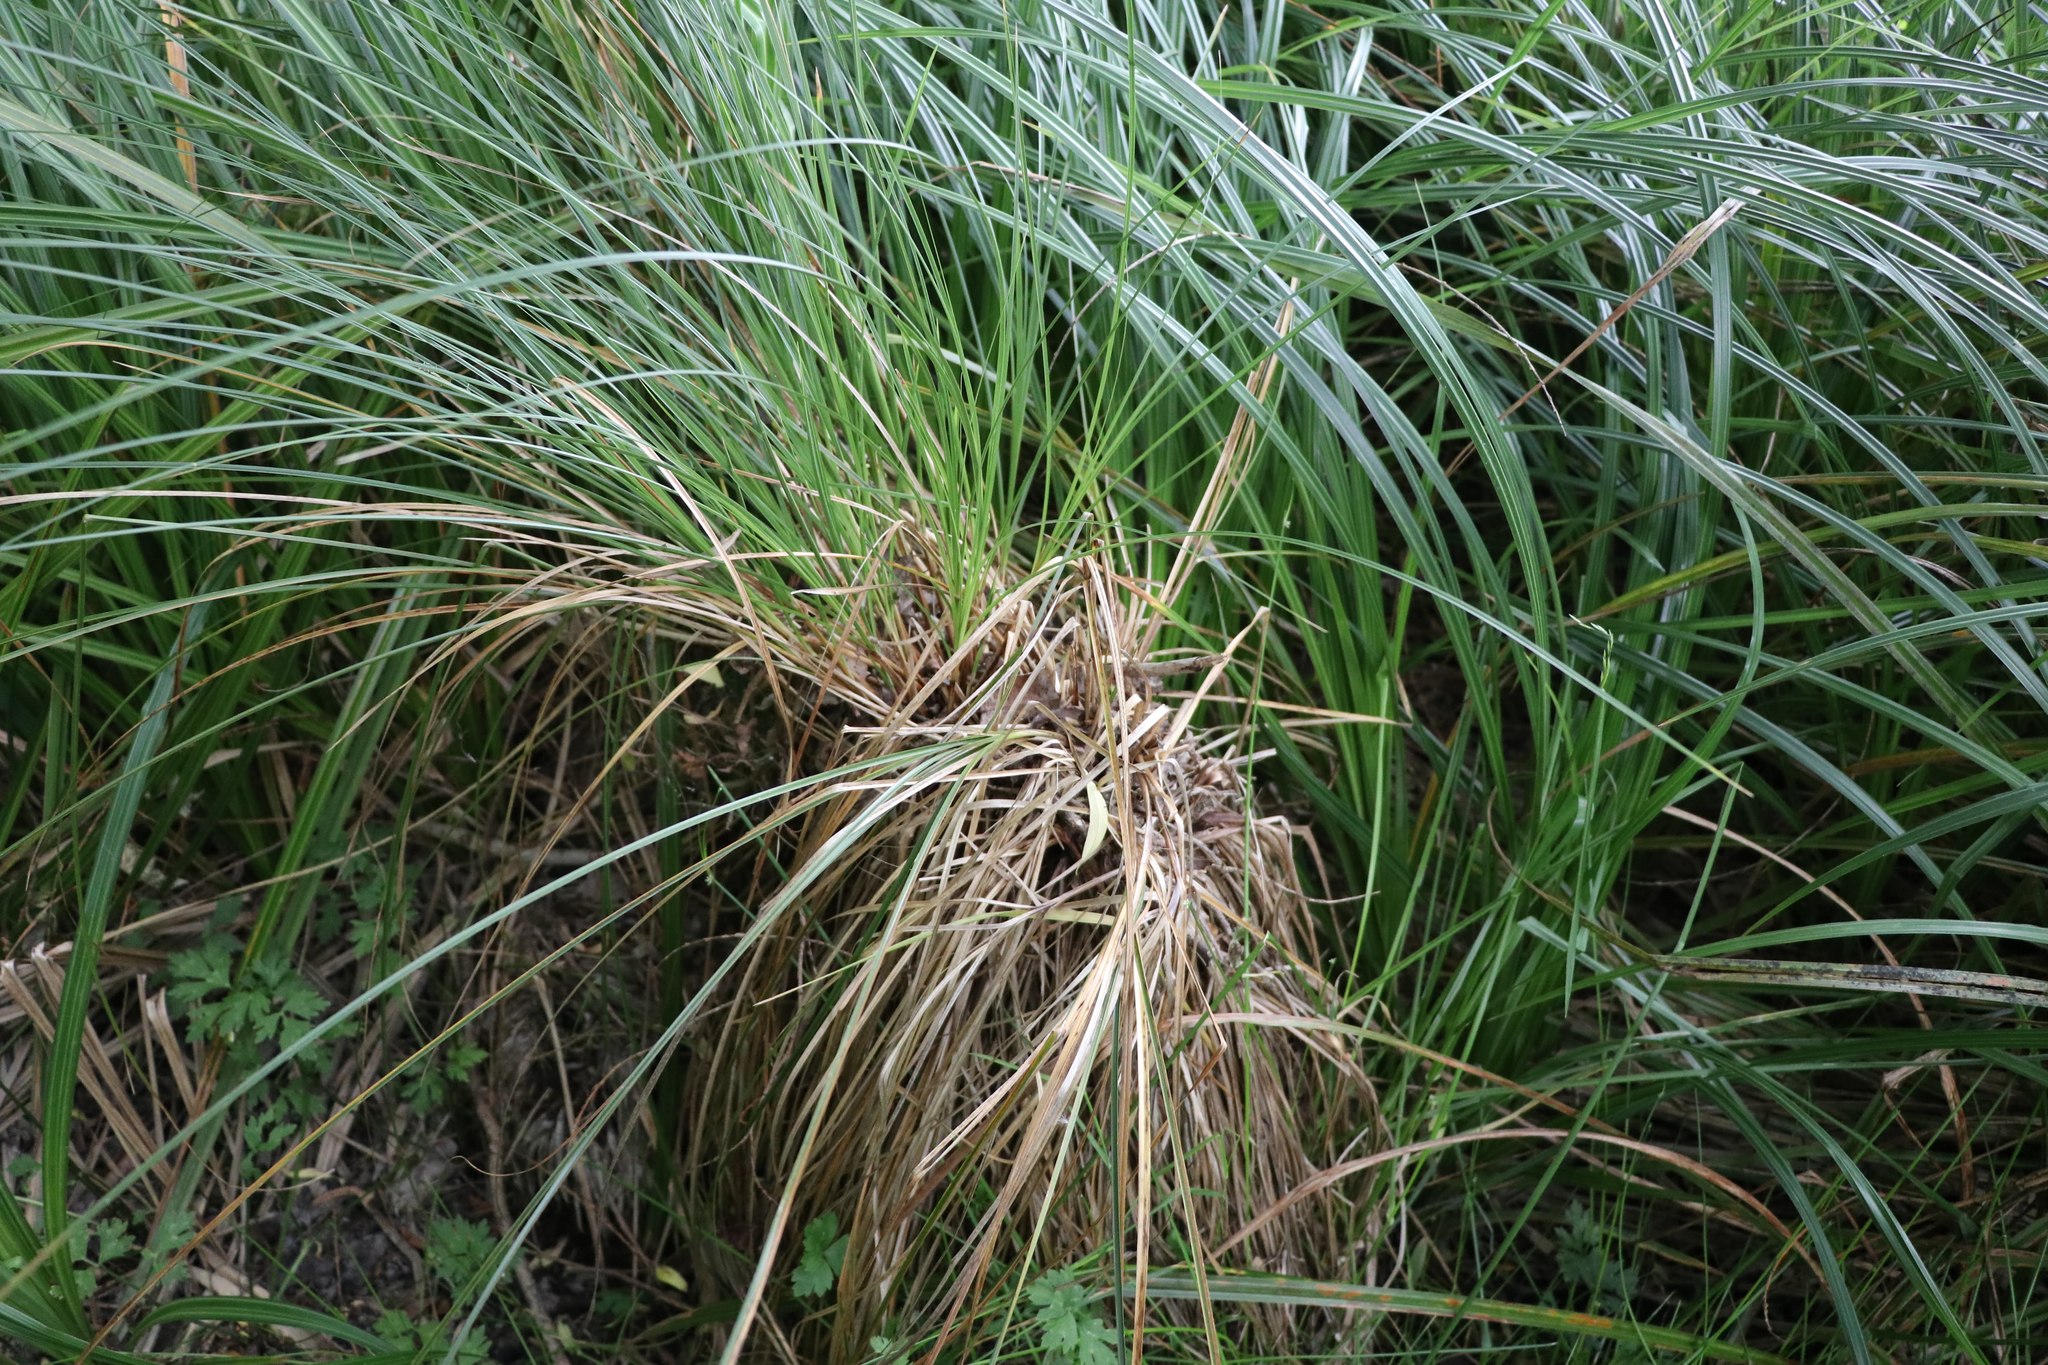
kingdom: Plantae
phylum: Tracheophyta
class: Liliopsida
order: Poales
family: Cyperaceae
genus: Carex
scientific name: Carex secta
